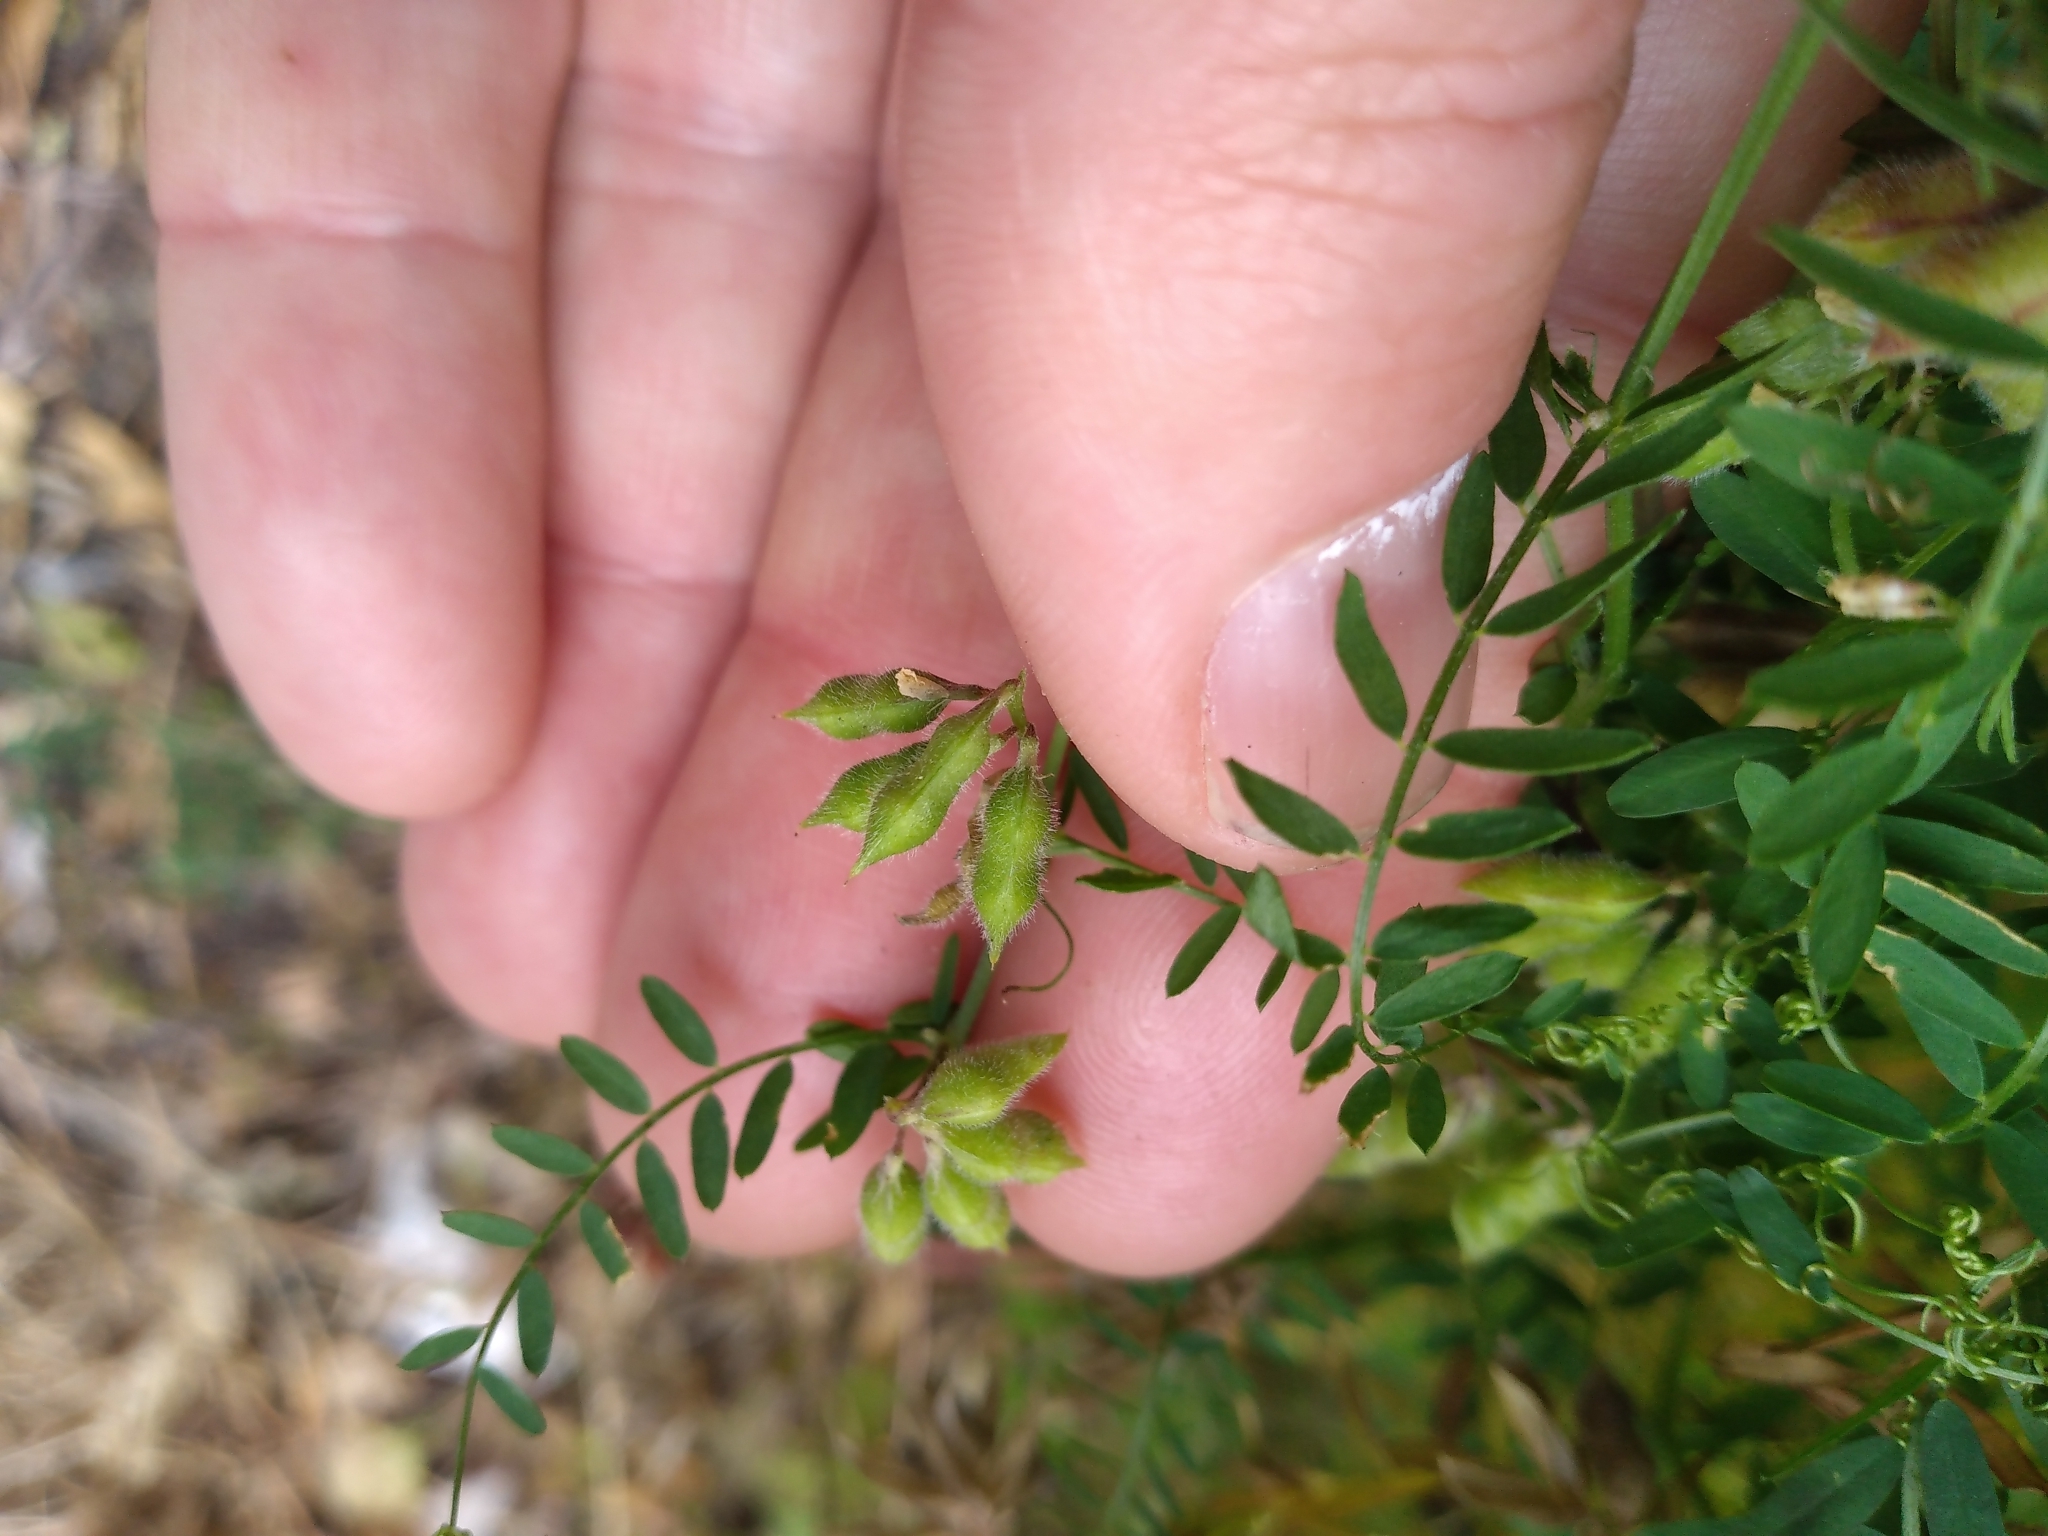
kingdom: Plantae
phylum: Tracheophyta
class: Magnoliopsida
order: Fabales
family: Fabaceae
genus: Vicia
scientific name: Vicia hirsuta
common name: Tiny vetch
